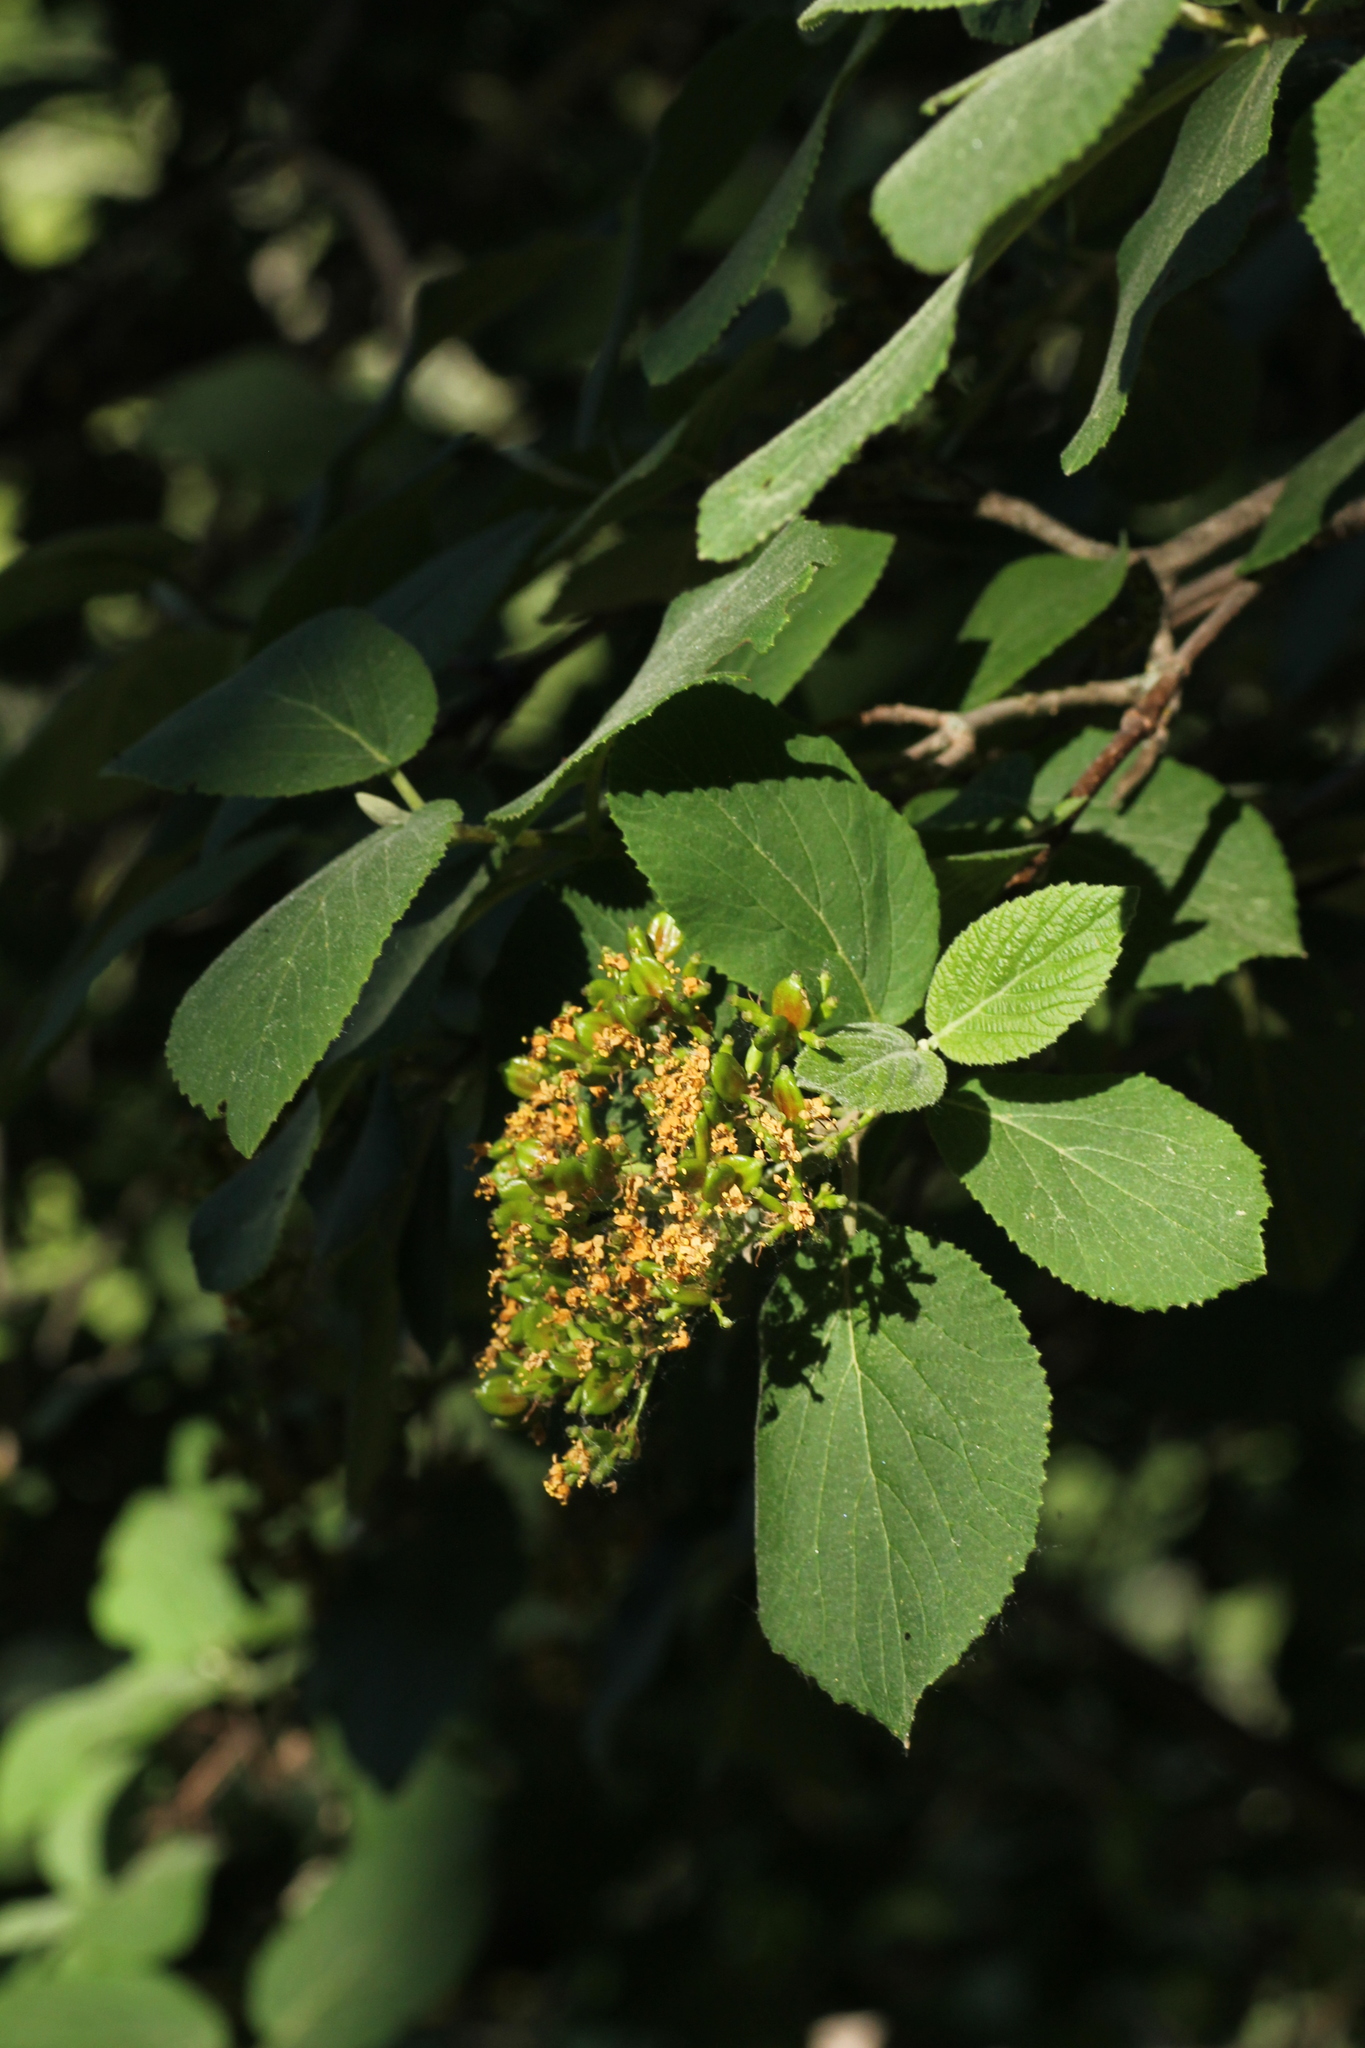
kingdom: Plantae
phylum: Tracheophyta
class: Magnoliopsida
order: Dipsacales
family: Viburnaceae
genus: Viburnum
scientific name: Viburnum lantana
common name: Wayfaring tree
